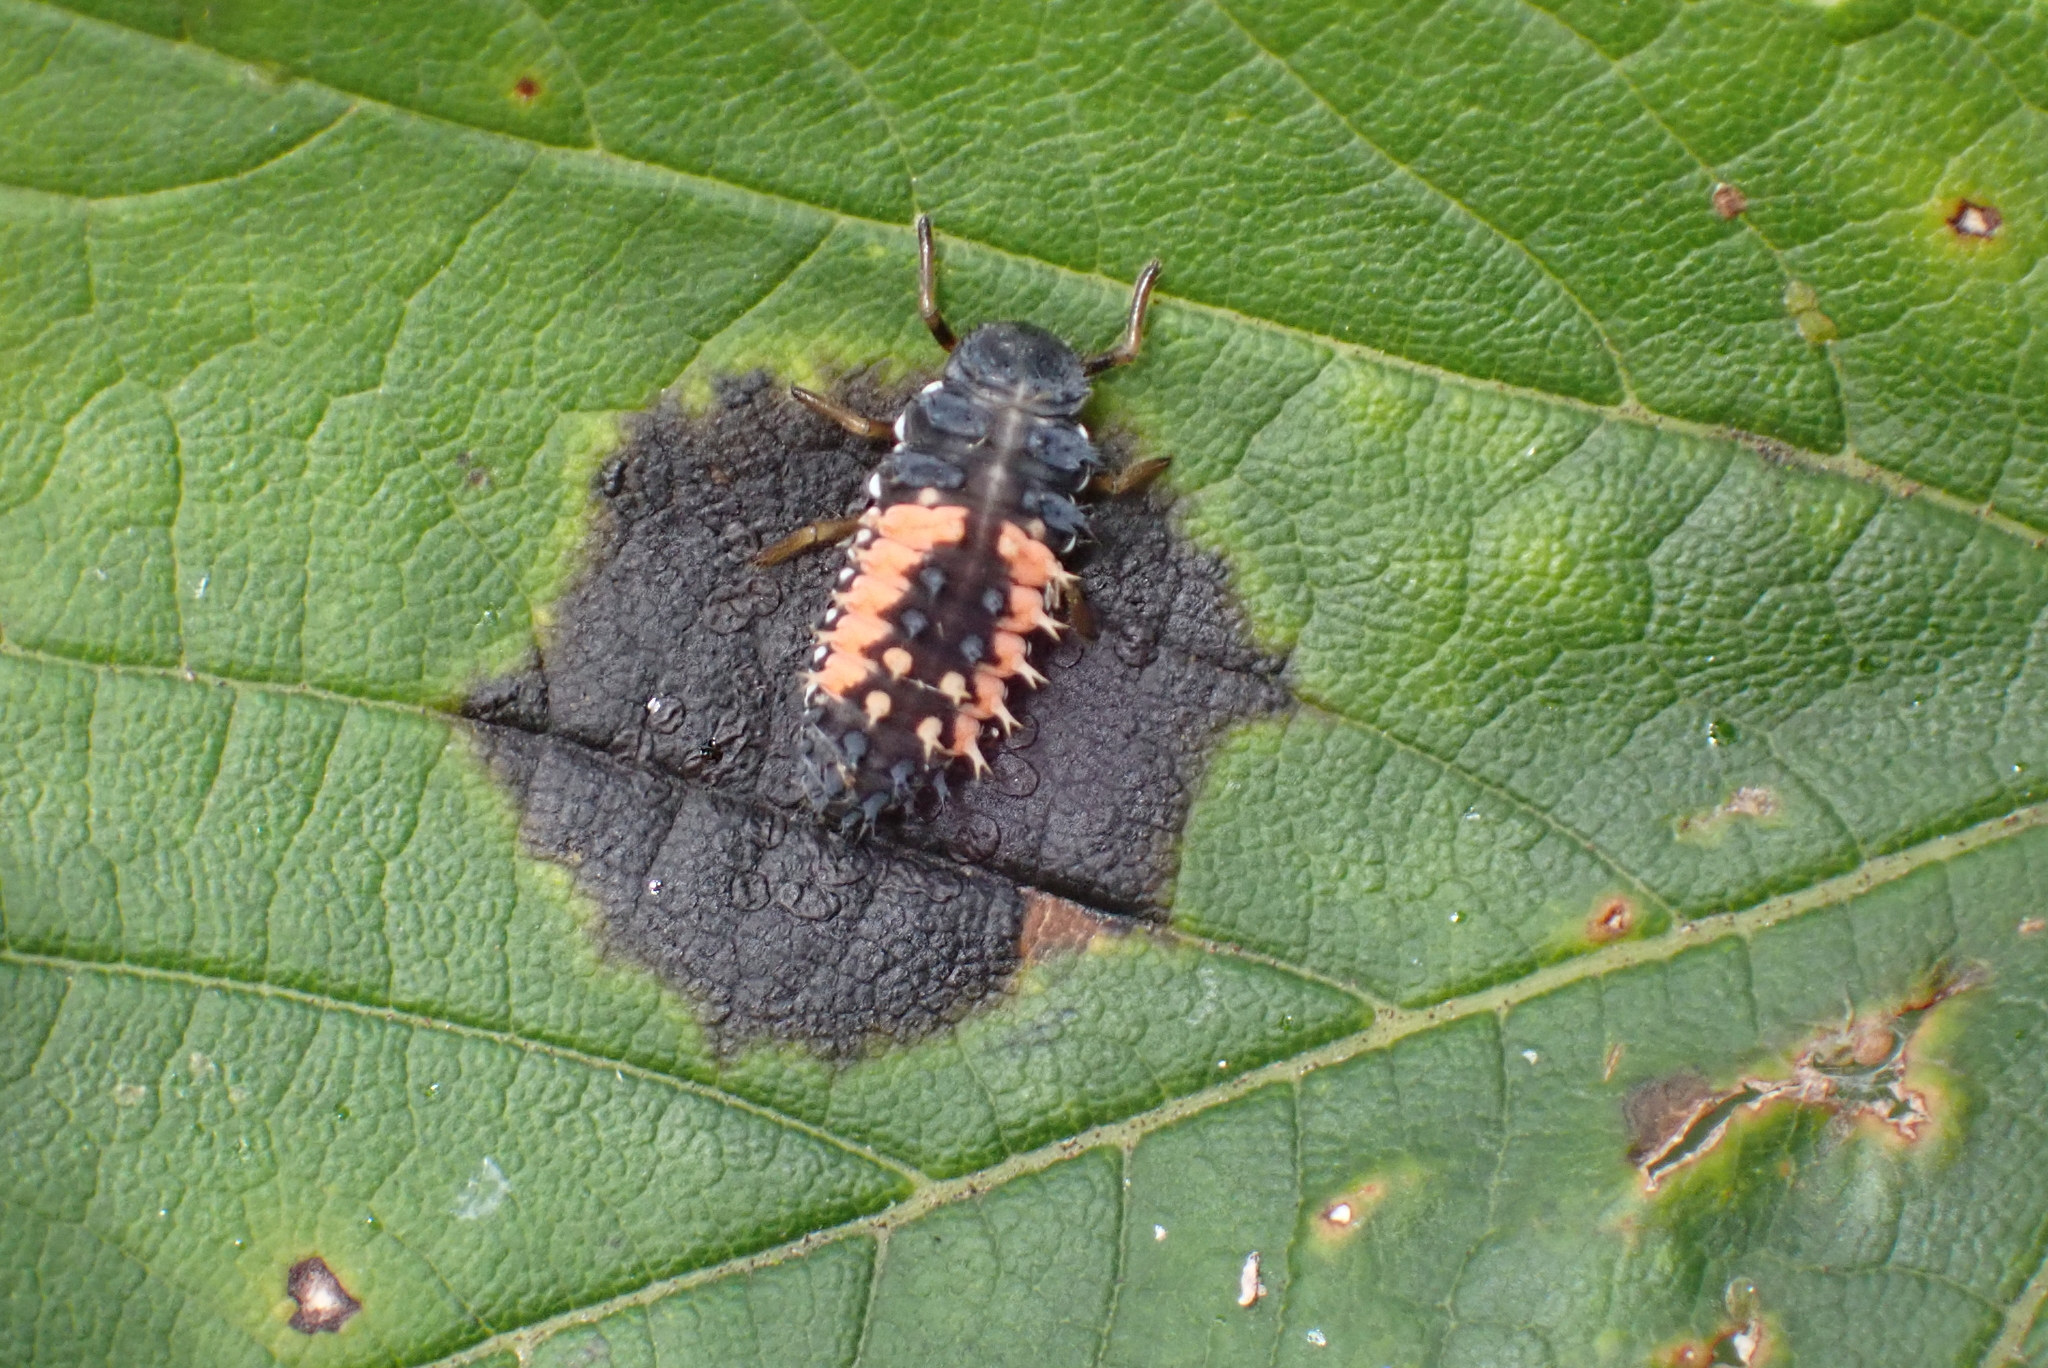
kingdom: Animalia
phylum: Arthropoda
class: Insecta
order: Coleoptera
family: Coccinellidae
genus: Harmonia
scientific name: Harmonia axyridis
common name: Harlequin ladybird
